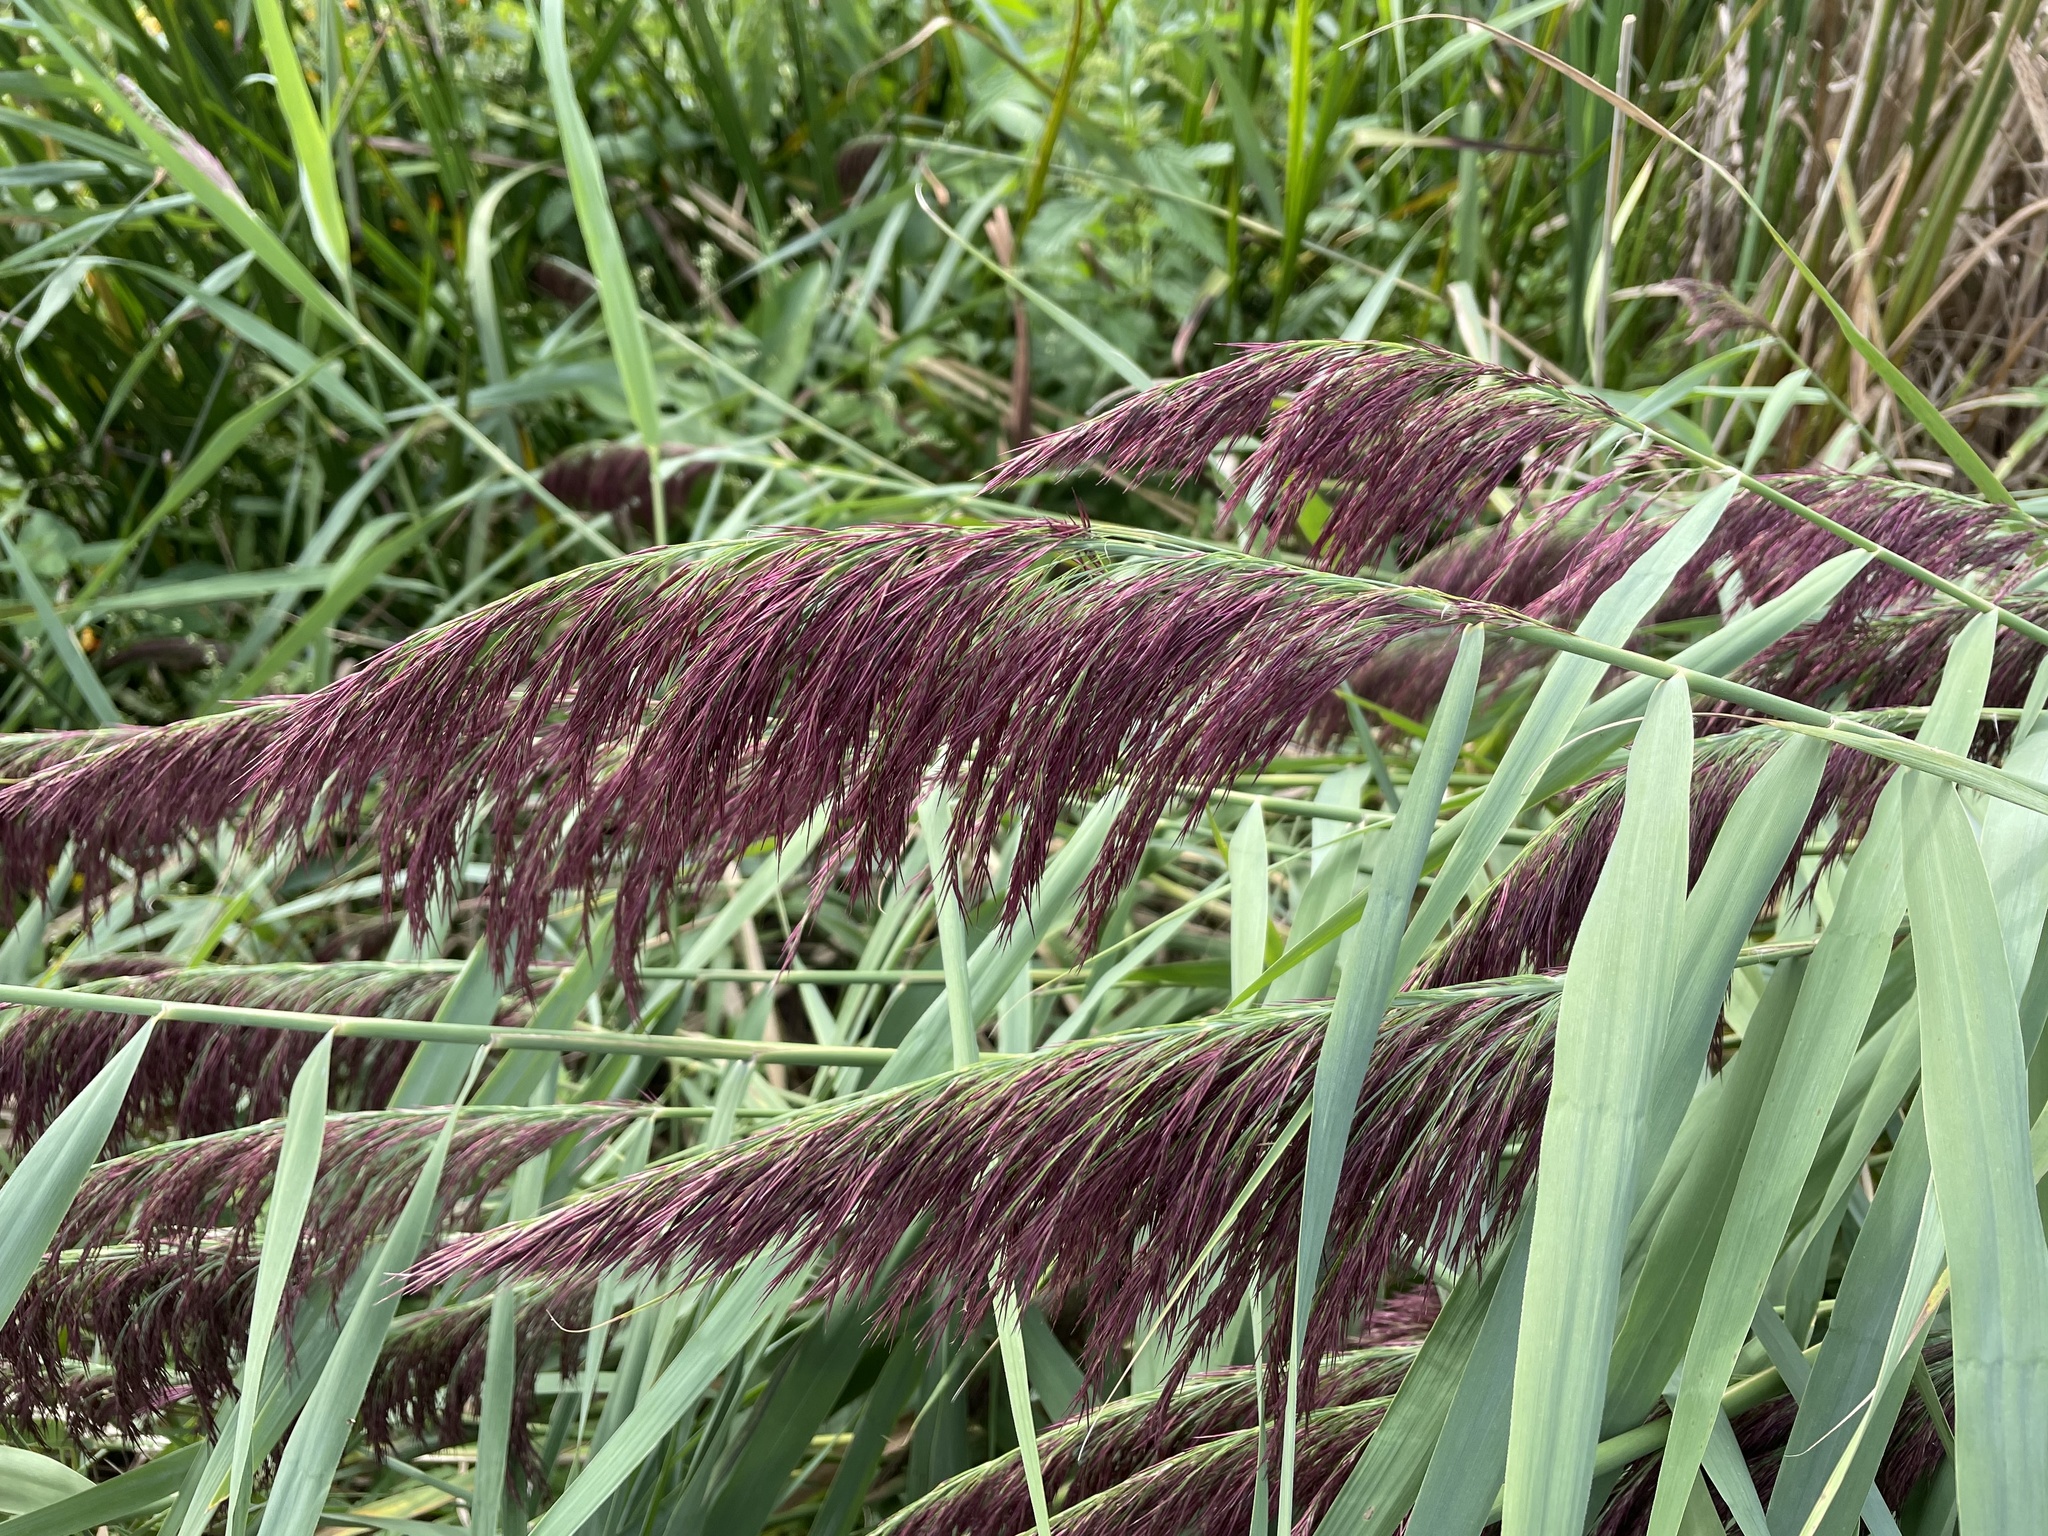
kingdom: Plantae
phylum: Tracheophyta
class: Liliopsida
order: Poales
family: Poaceae
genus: Phragmites
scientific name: Phragmites australis
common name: Common reed
